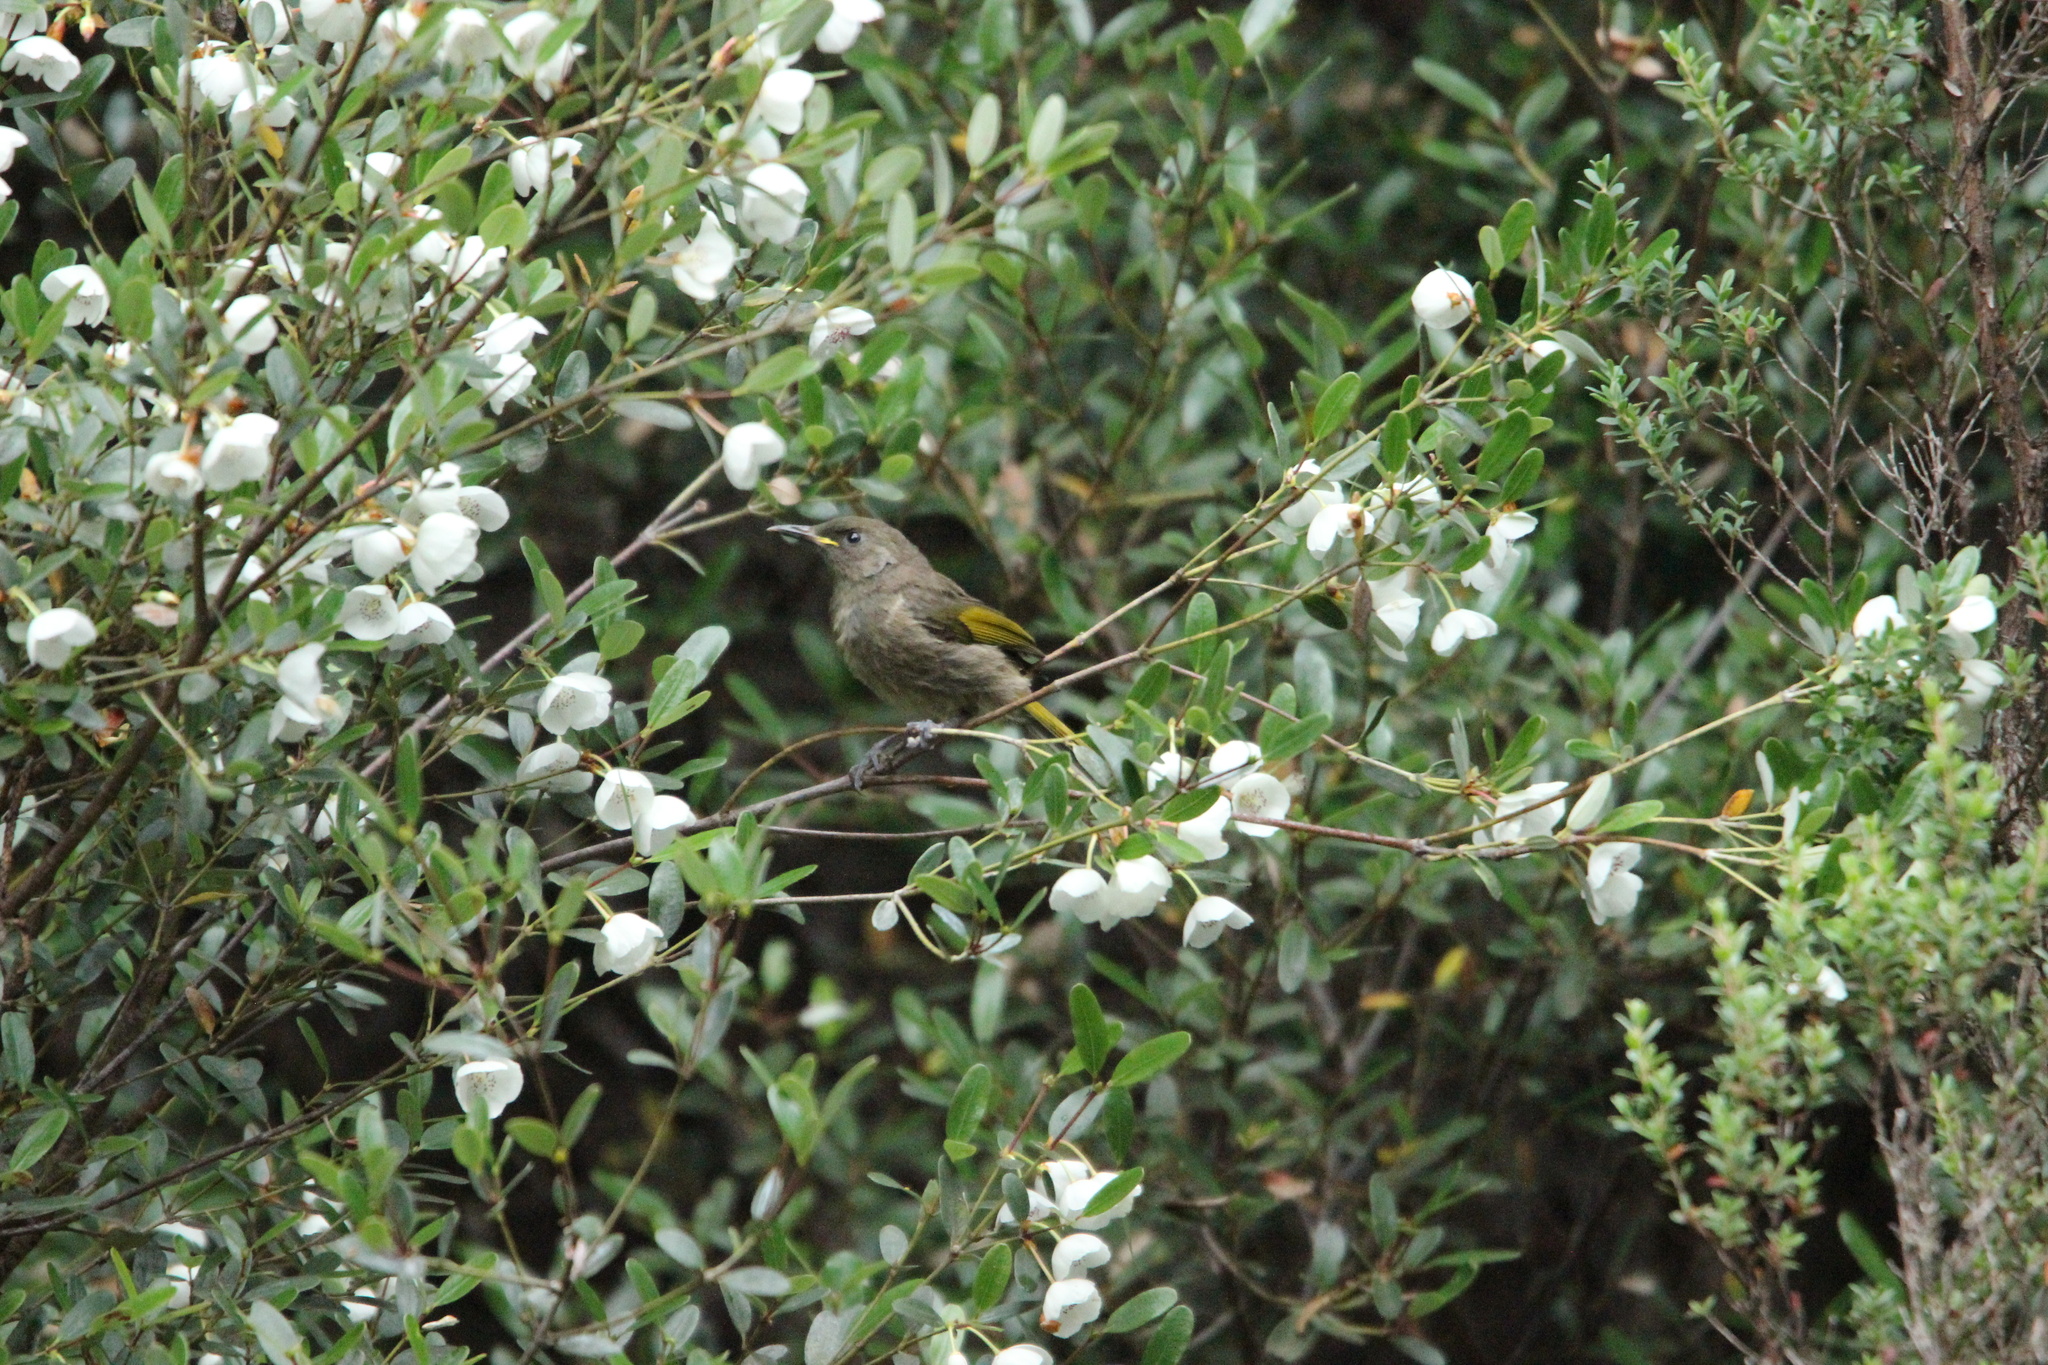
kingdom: Animalia
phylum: Chordata
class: Aves
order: Passeriformes
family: Meliphagidae
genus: Phylidonyris
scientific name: Phylidonyris pyrrhopterus
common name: Crescent honeyeater
